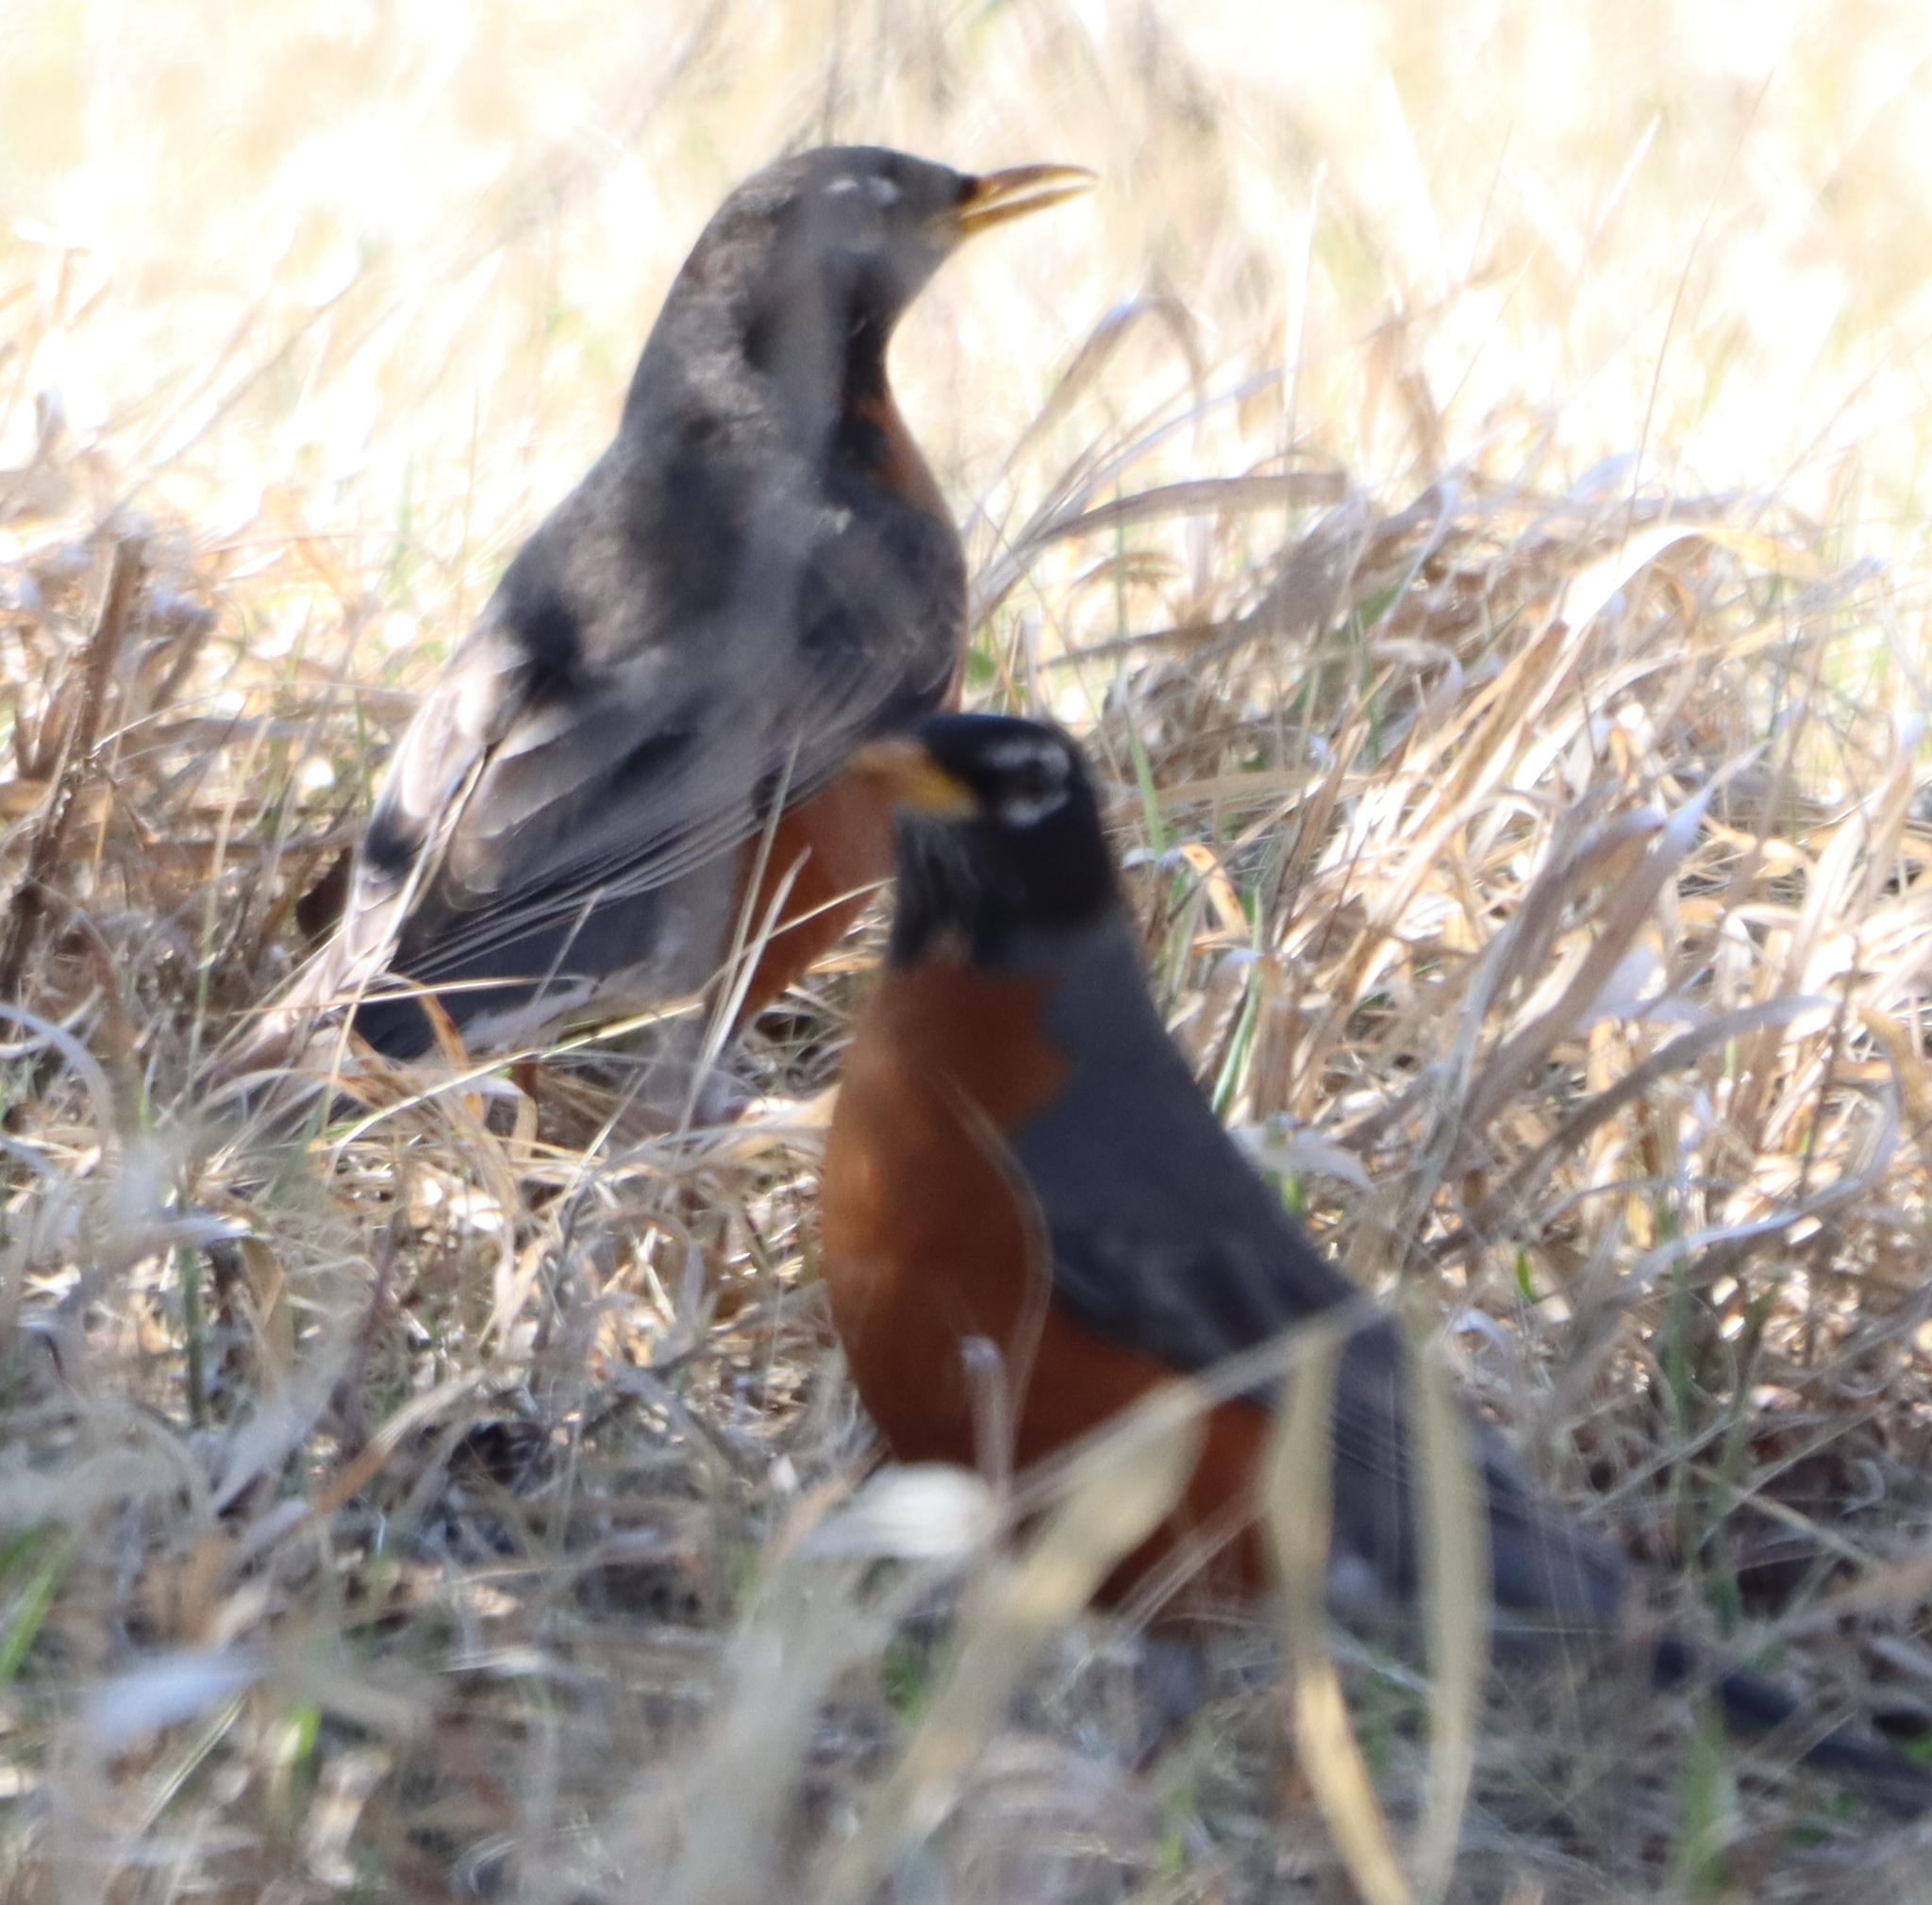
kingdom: Animalia
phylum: Chordata
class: Aves
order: Passeriformes
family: Turdidae
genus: Turdus
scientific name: Turdus migratorius
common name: American robin
